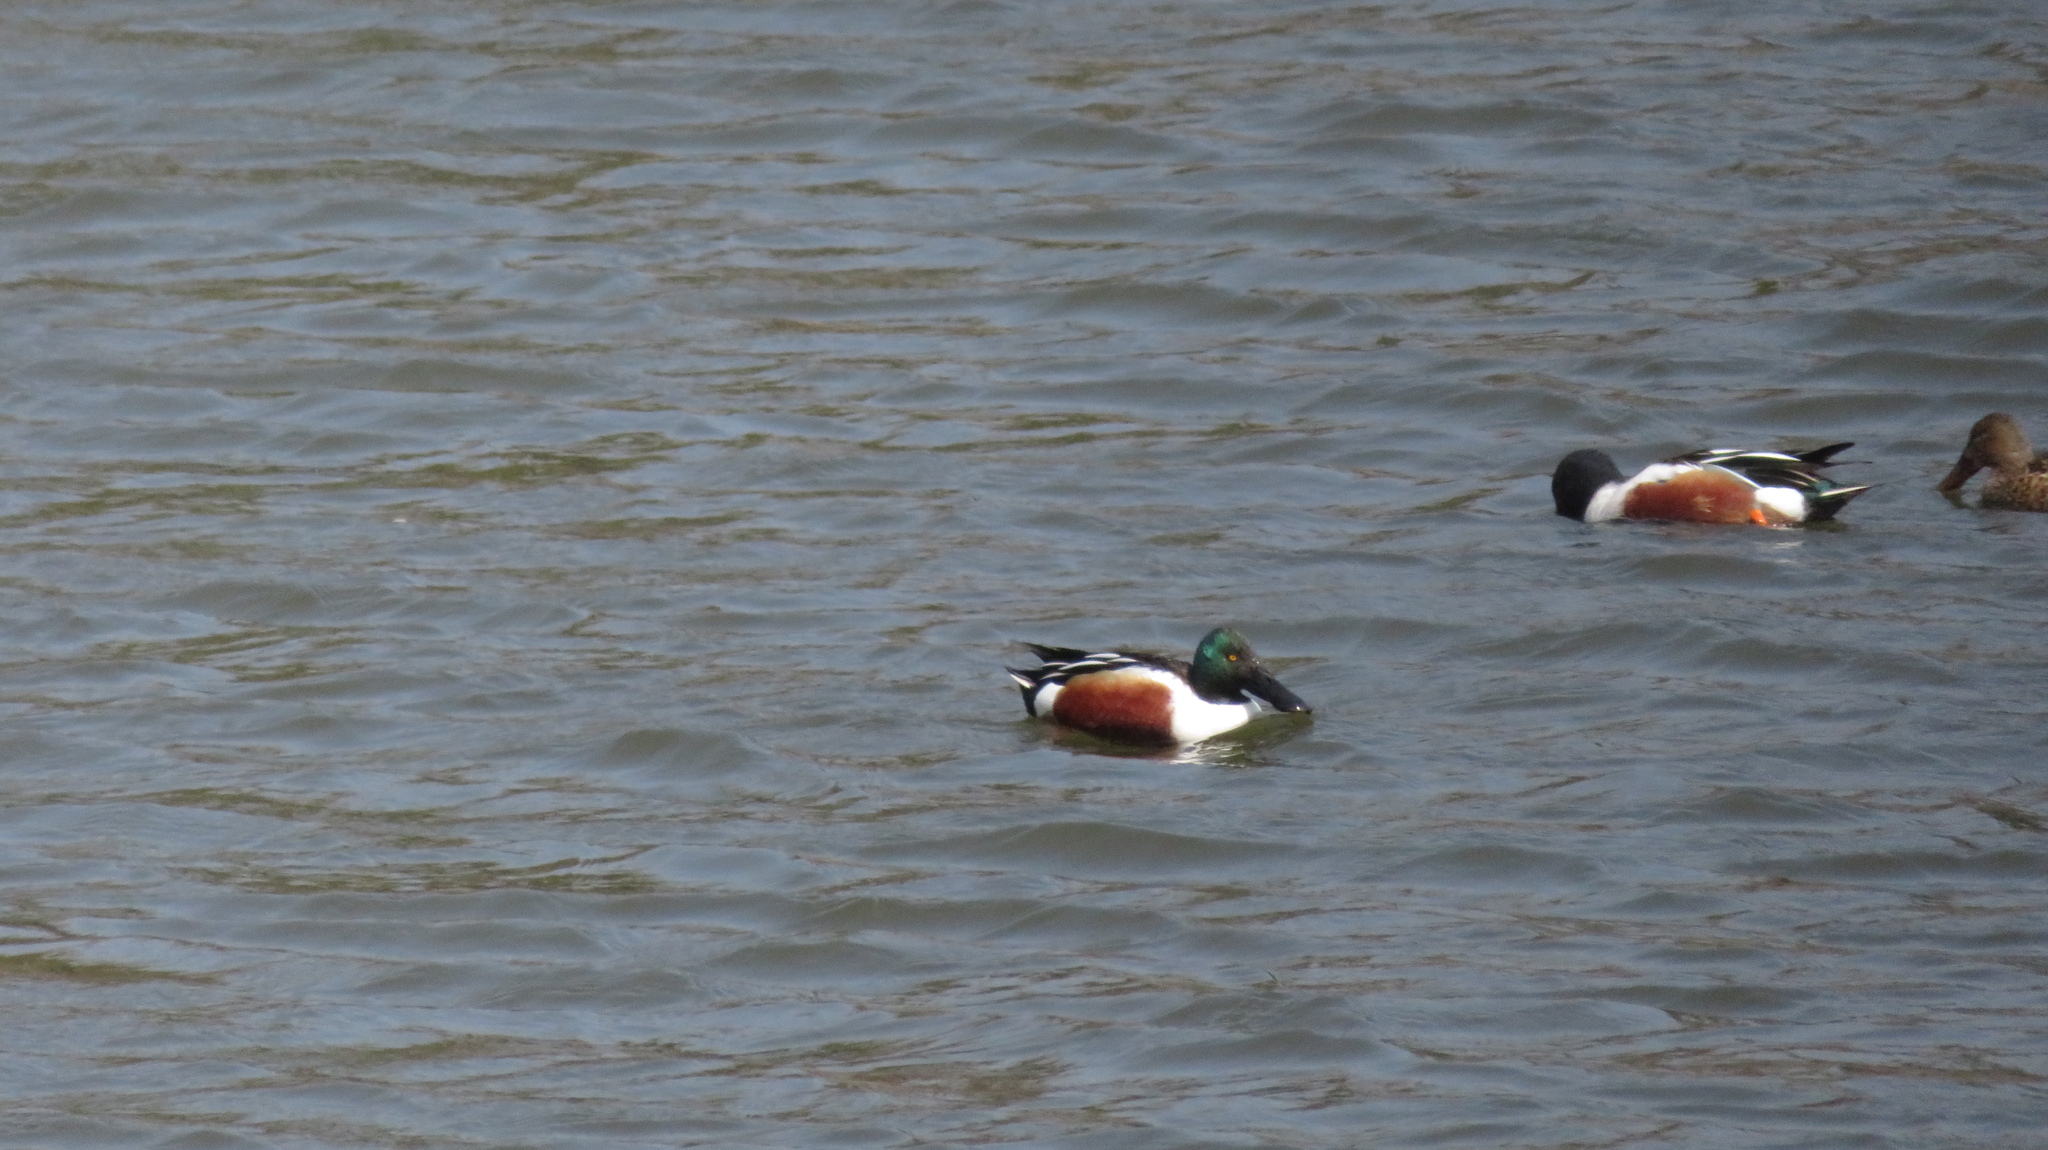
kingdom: Animalia
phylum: Chordata
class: Aves
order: Anseriformes
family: Anatidae
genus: Spatula
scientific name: Spatula clypeata
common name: Northern shoveler
